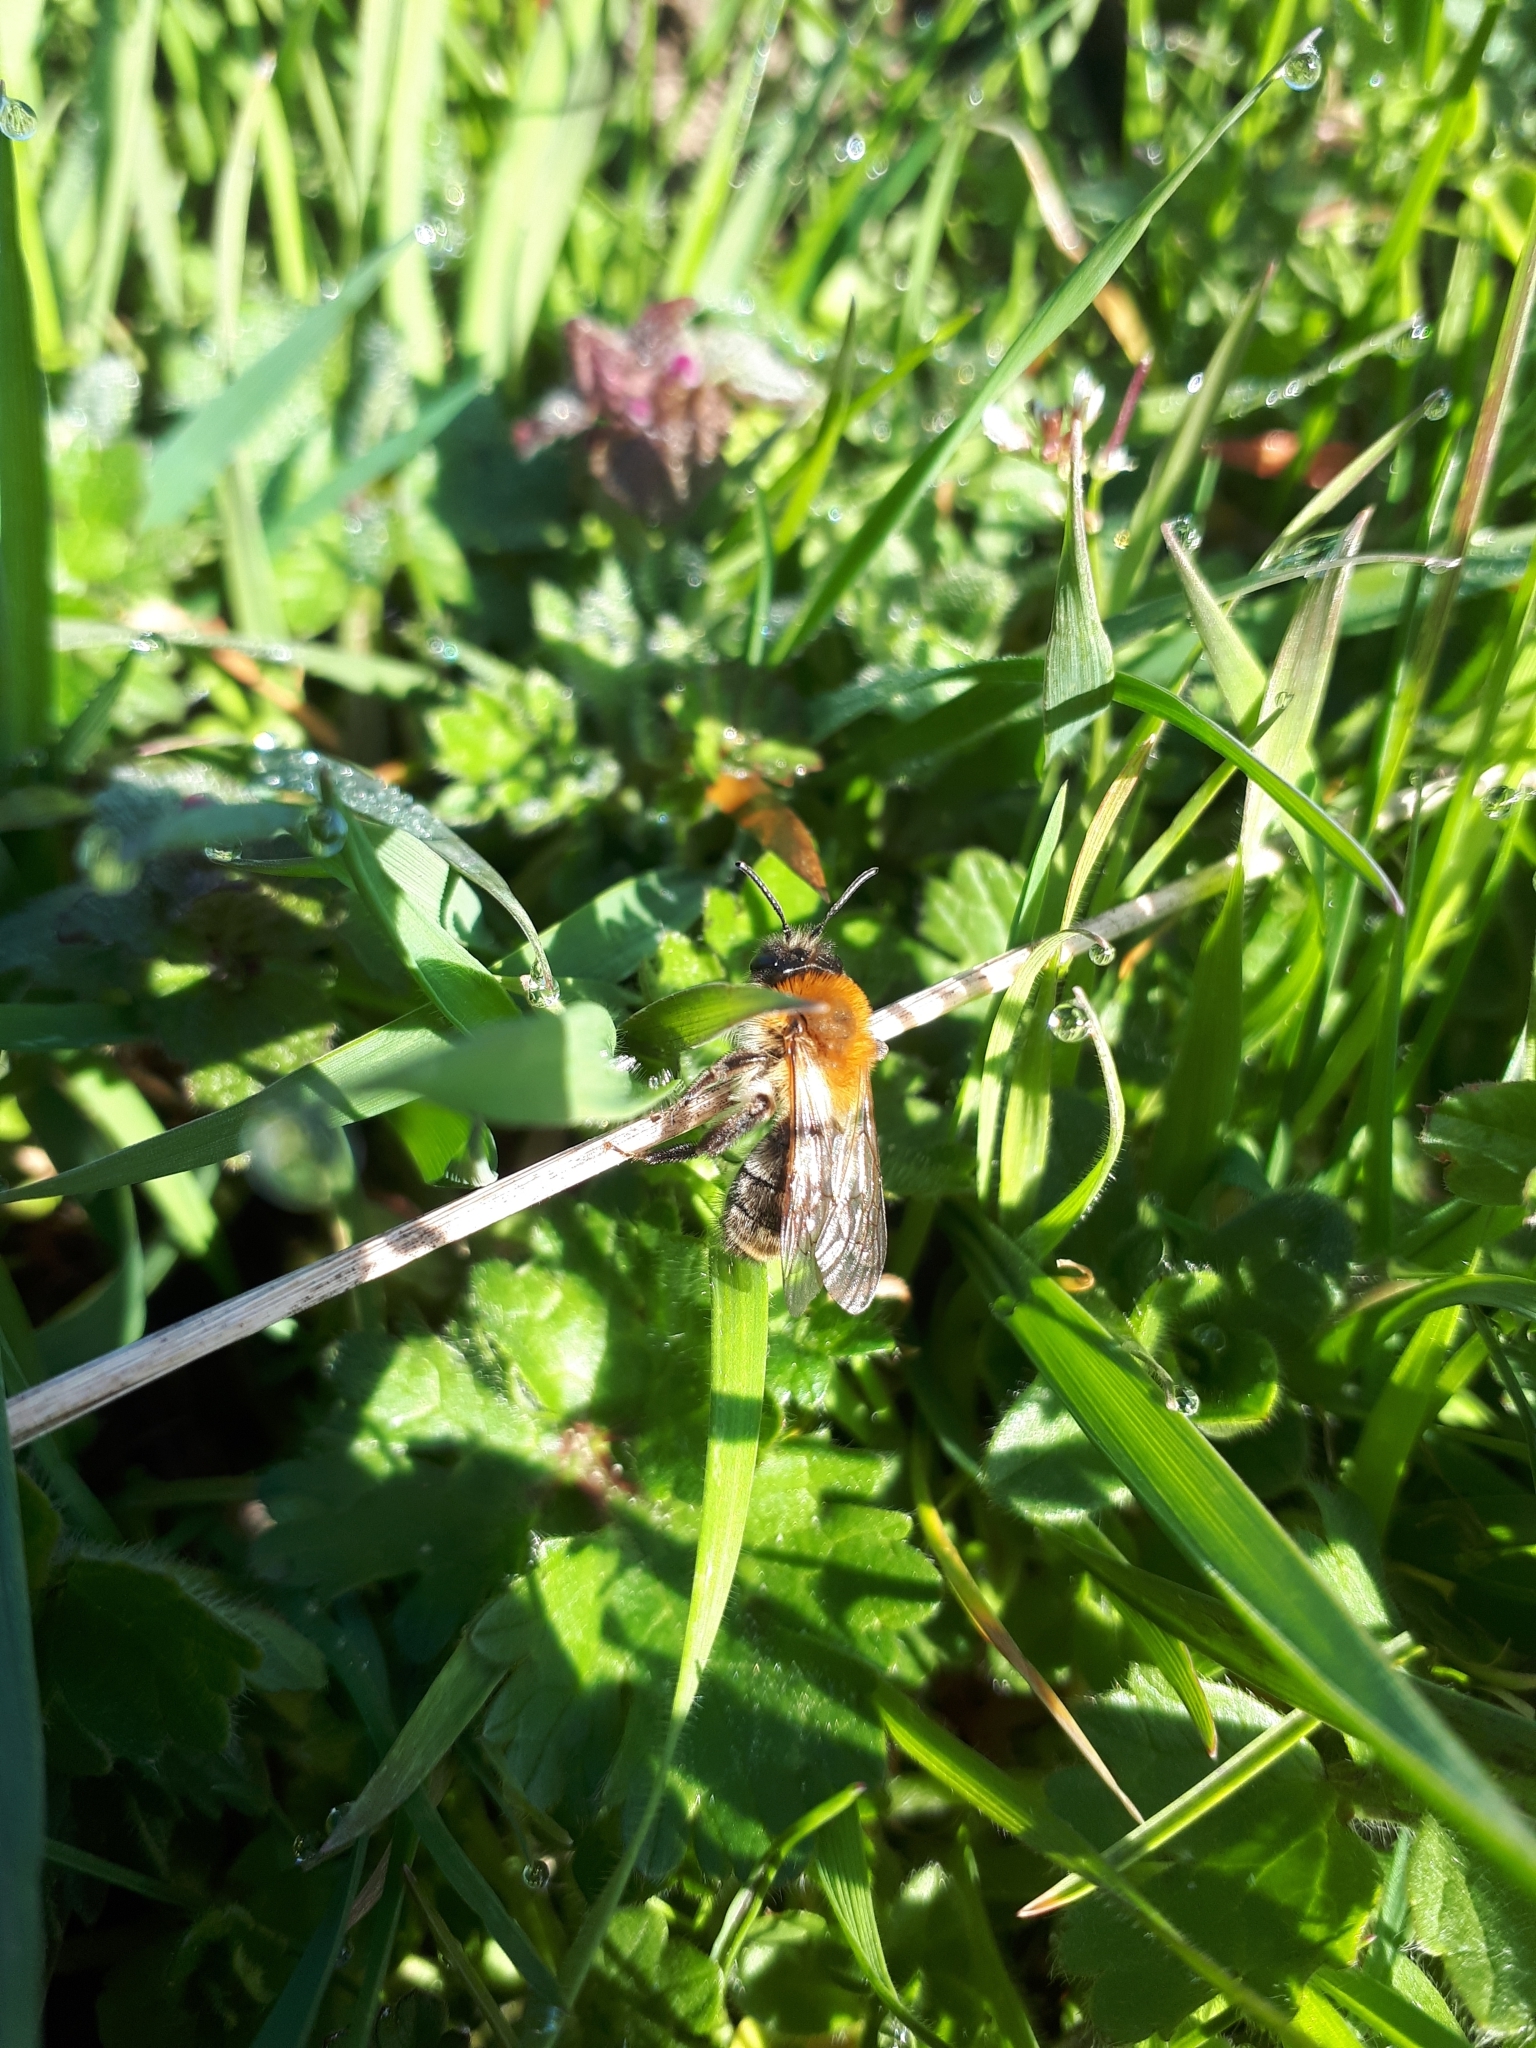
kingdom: Animalia
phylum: Arthropoda
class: Insecta
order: Hymenoptera
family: Andrenidae
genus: Andrena
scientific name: Andrena nitida
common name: Grey-patched mining bee
